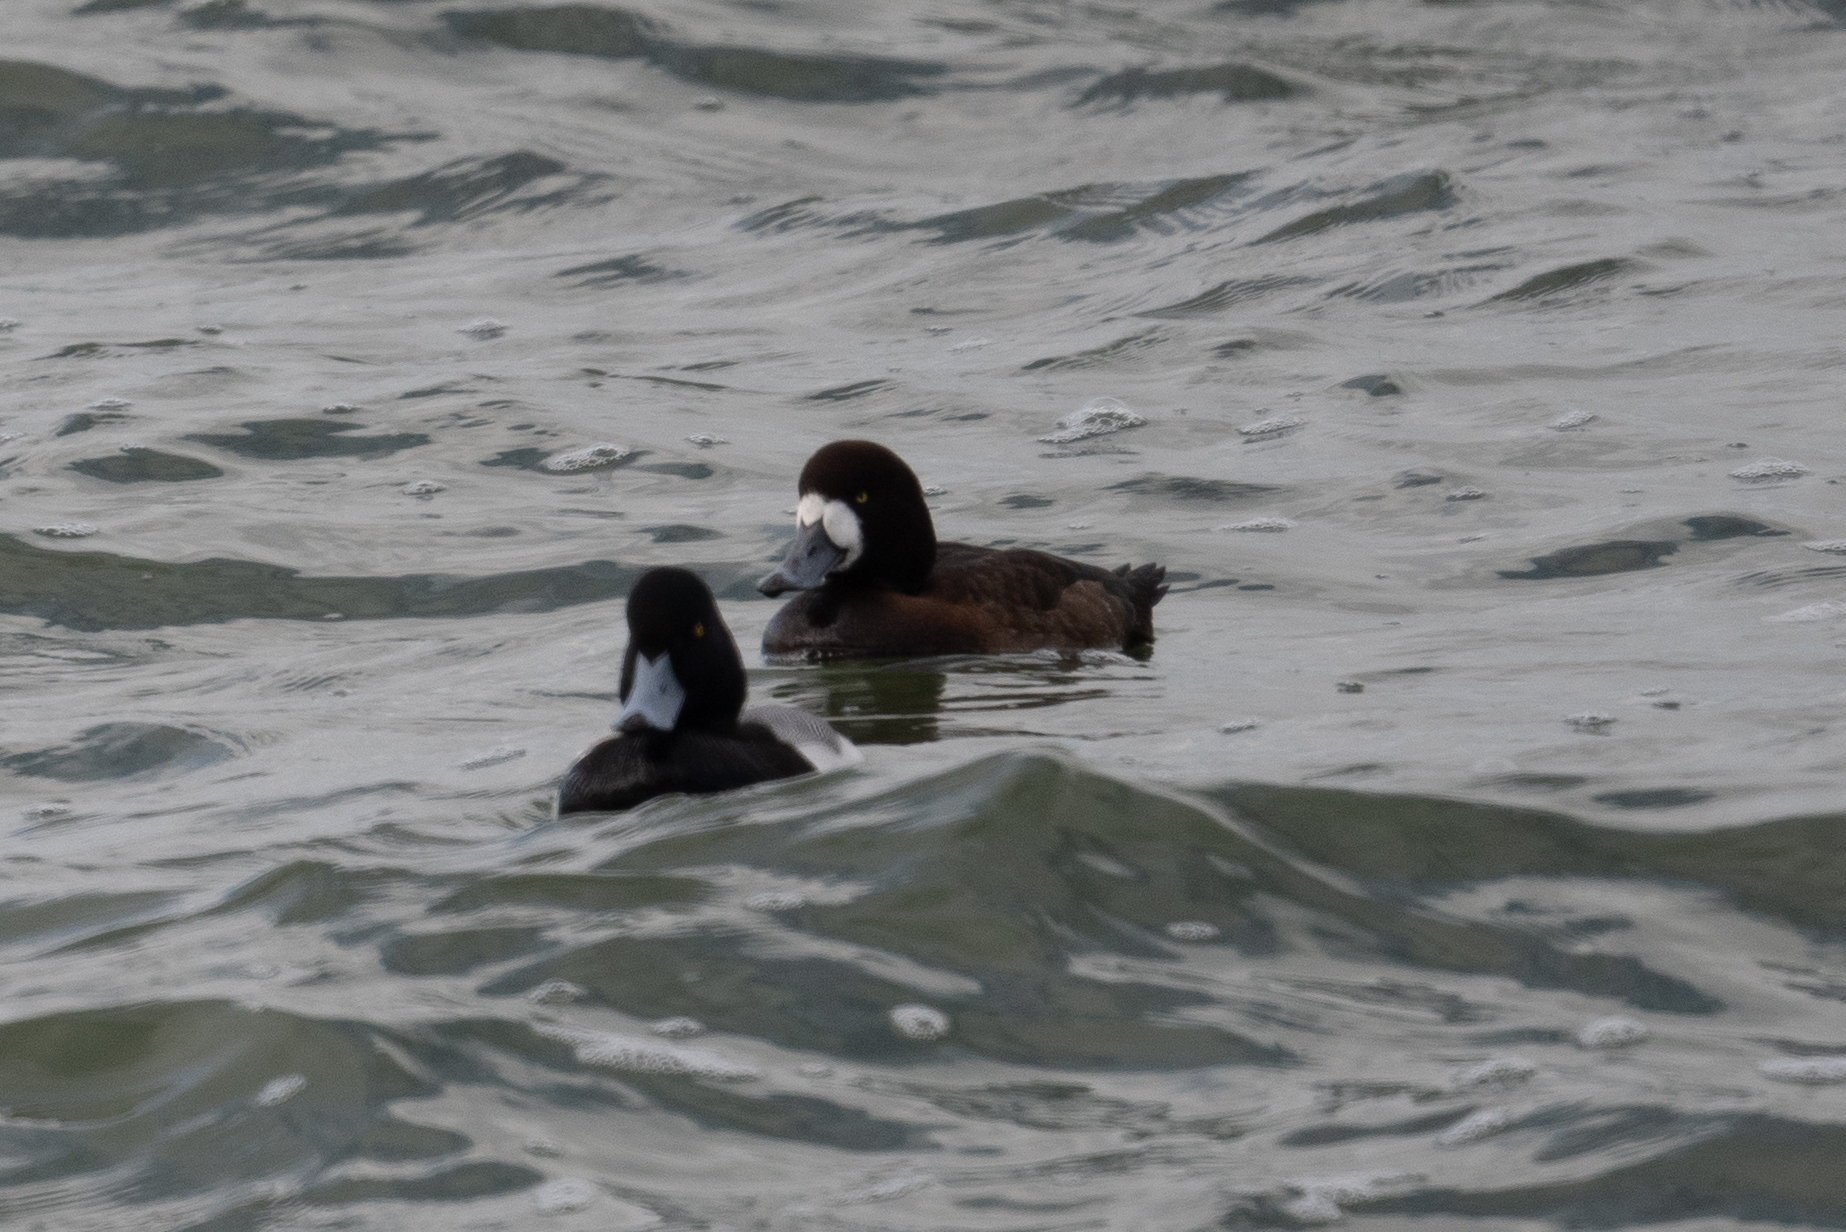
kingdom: Animalia
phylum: Chordata
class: Aves
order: Anseriformes
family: Anatidae
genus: Aythya
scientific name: Aythya marila
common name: Greater scaup
